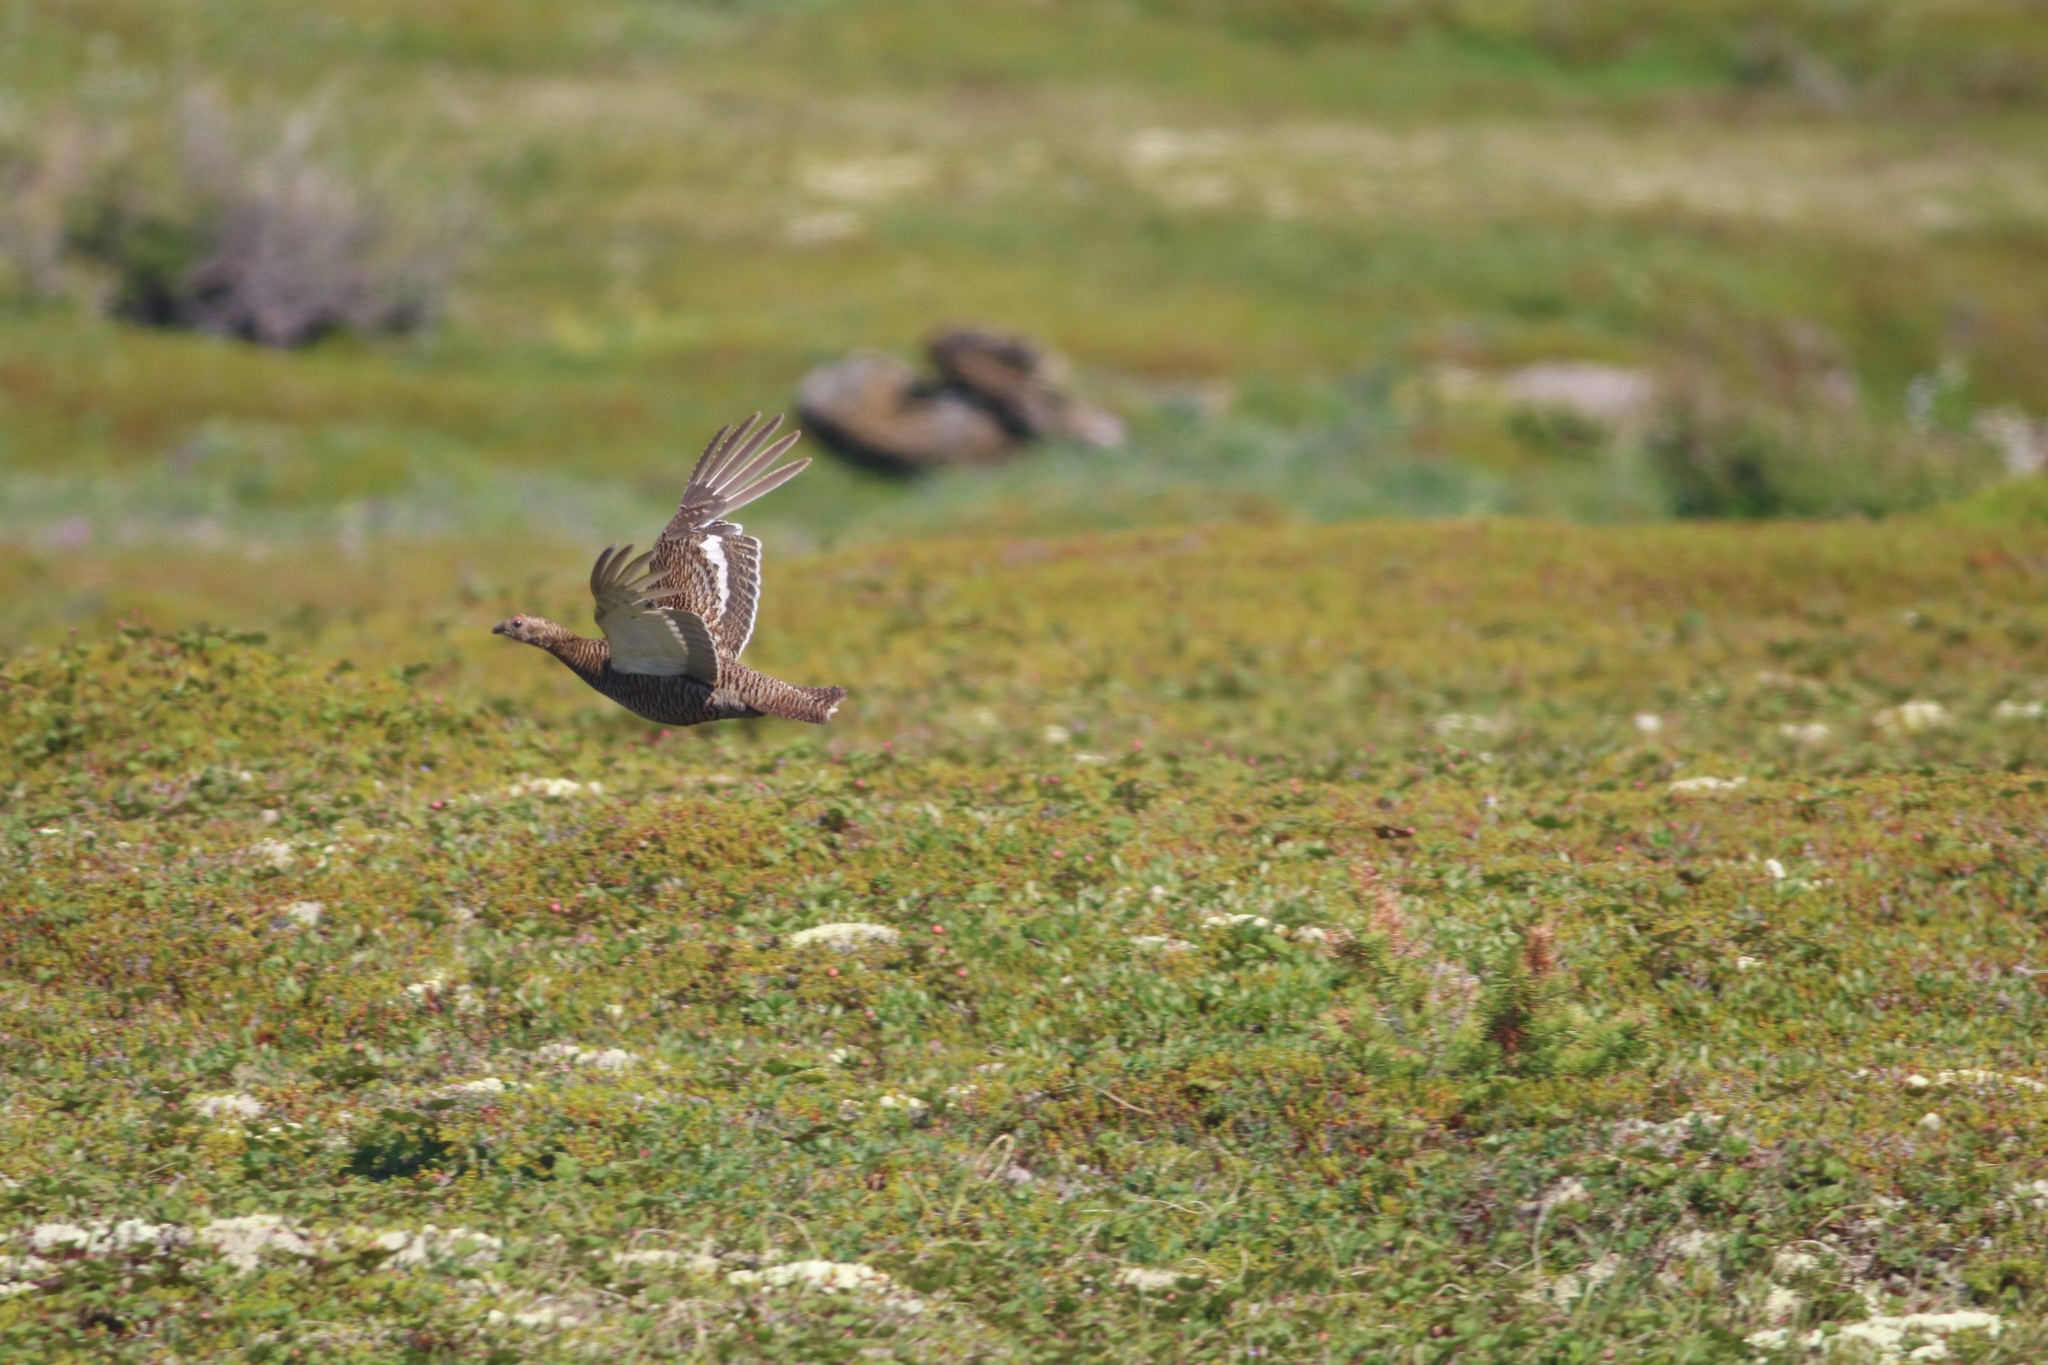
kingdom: Animalia
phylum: Chordata
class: Aves
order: Galliformes
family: Phasianidae
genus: Lyrurus
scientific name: Lyrurus tetrix
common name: Black grouse
